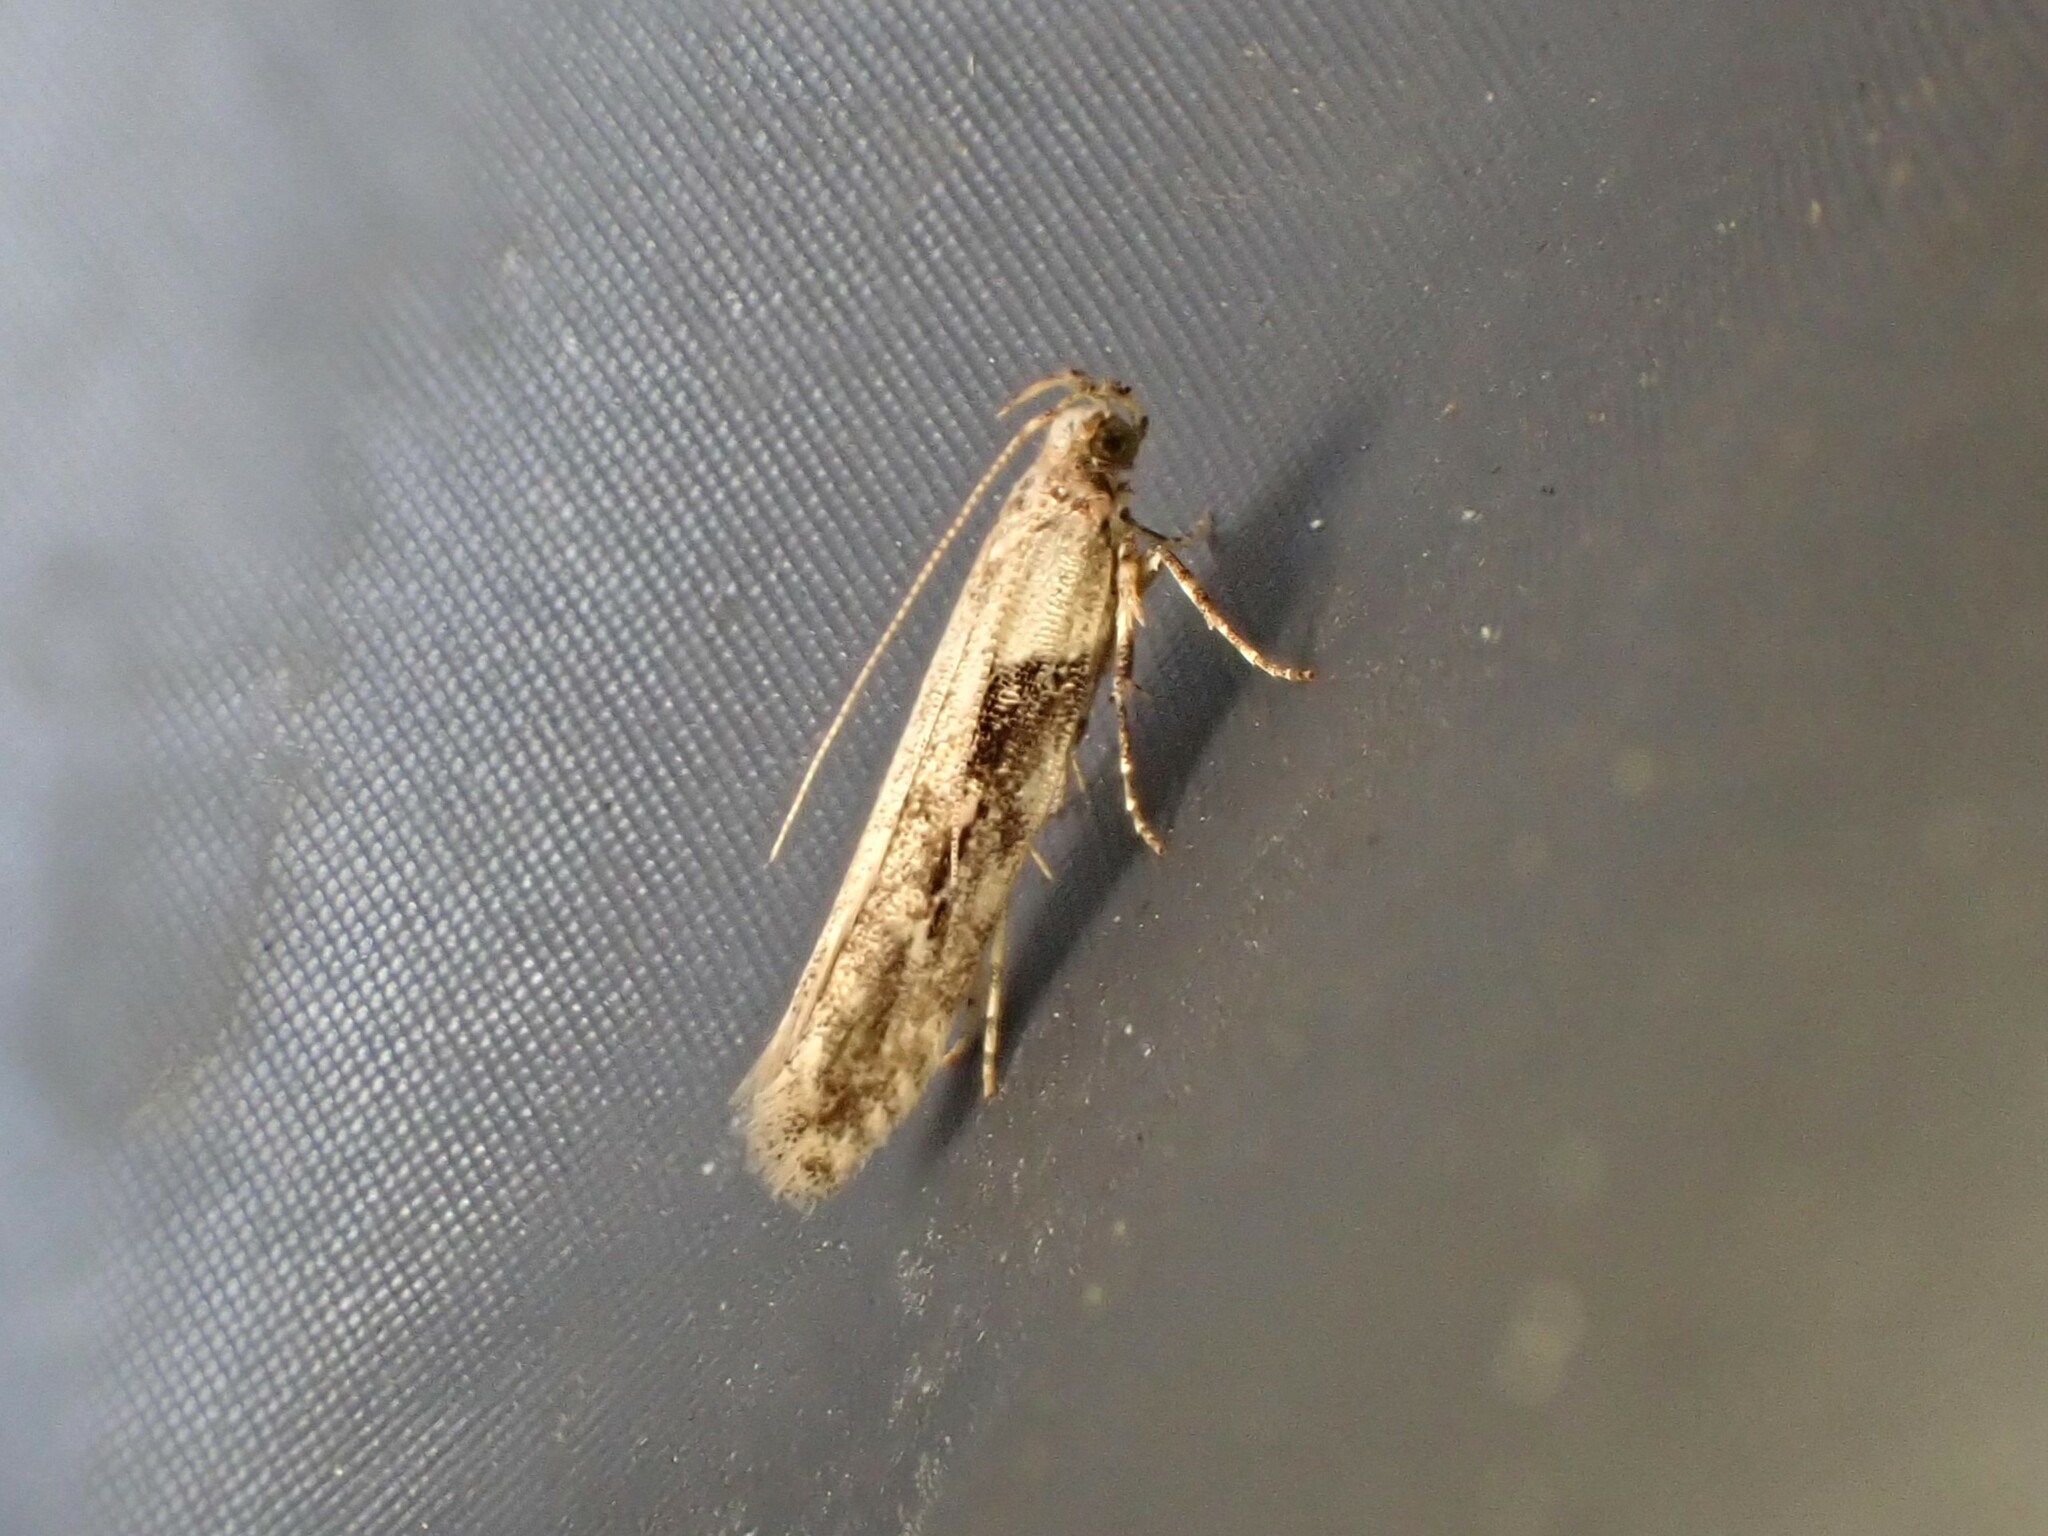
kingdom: Animalia
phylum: Arthropoda
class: Insecta
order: Lepidoptera
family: Gelechiidae
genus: Symmetrischema
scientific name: Symmetrischema tangolias
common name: Moth
